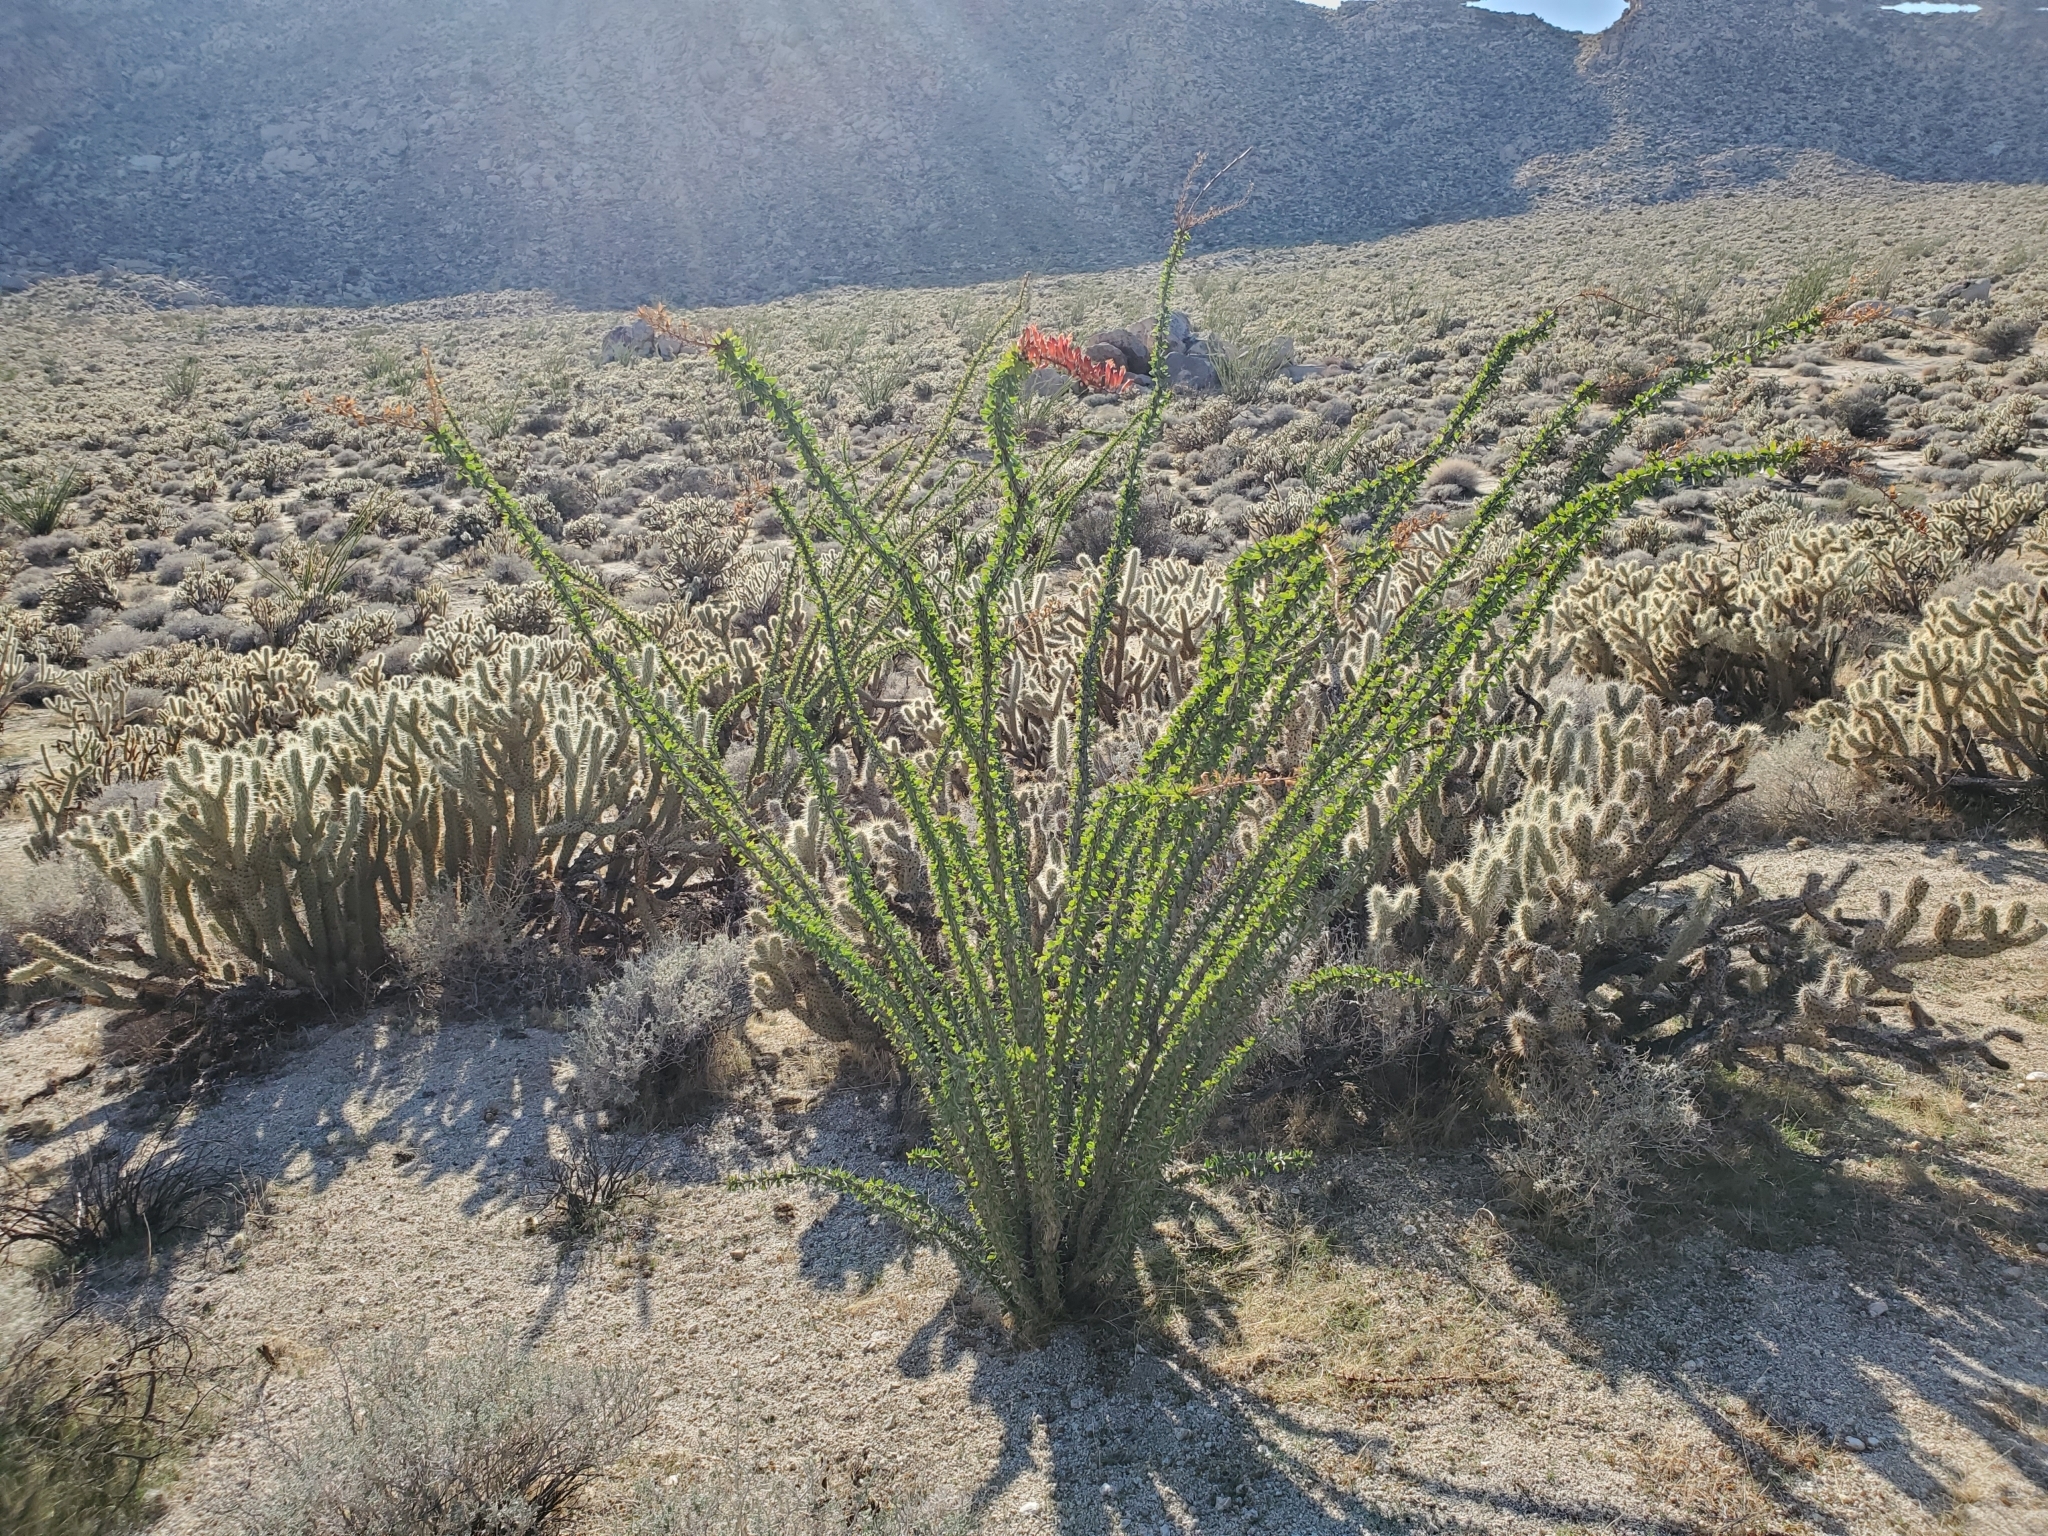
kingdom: Plantae
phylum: Tracheophyta
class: Magnoliopsida
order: Ericales
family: Fouquieriaceae
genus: Fouquieria
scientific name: Fouquieria splendens
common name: Vine-cactus
